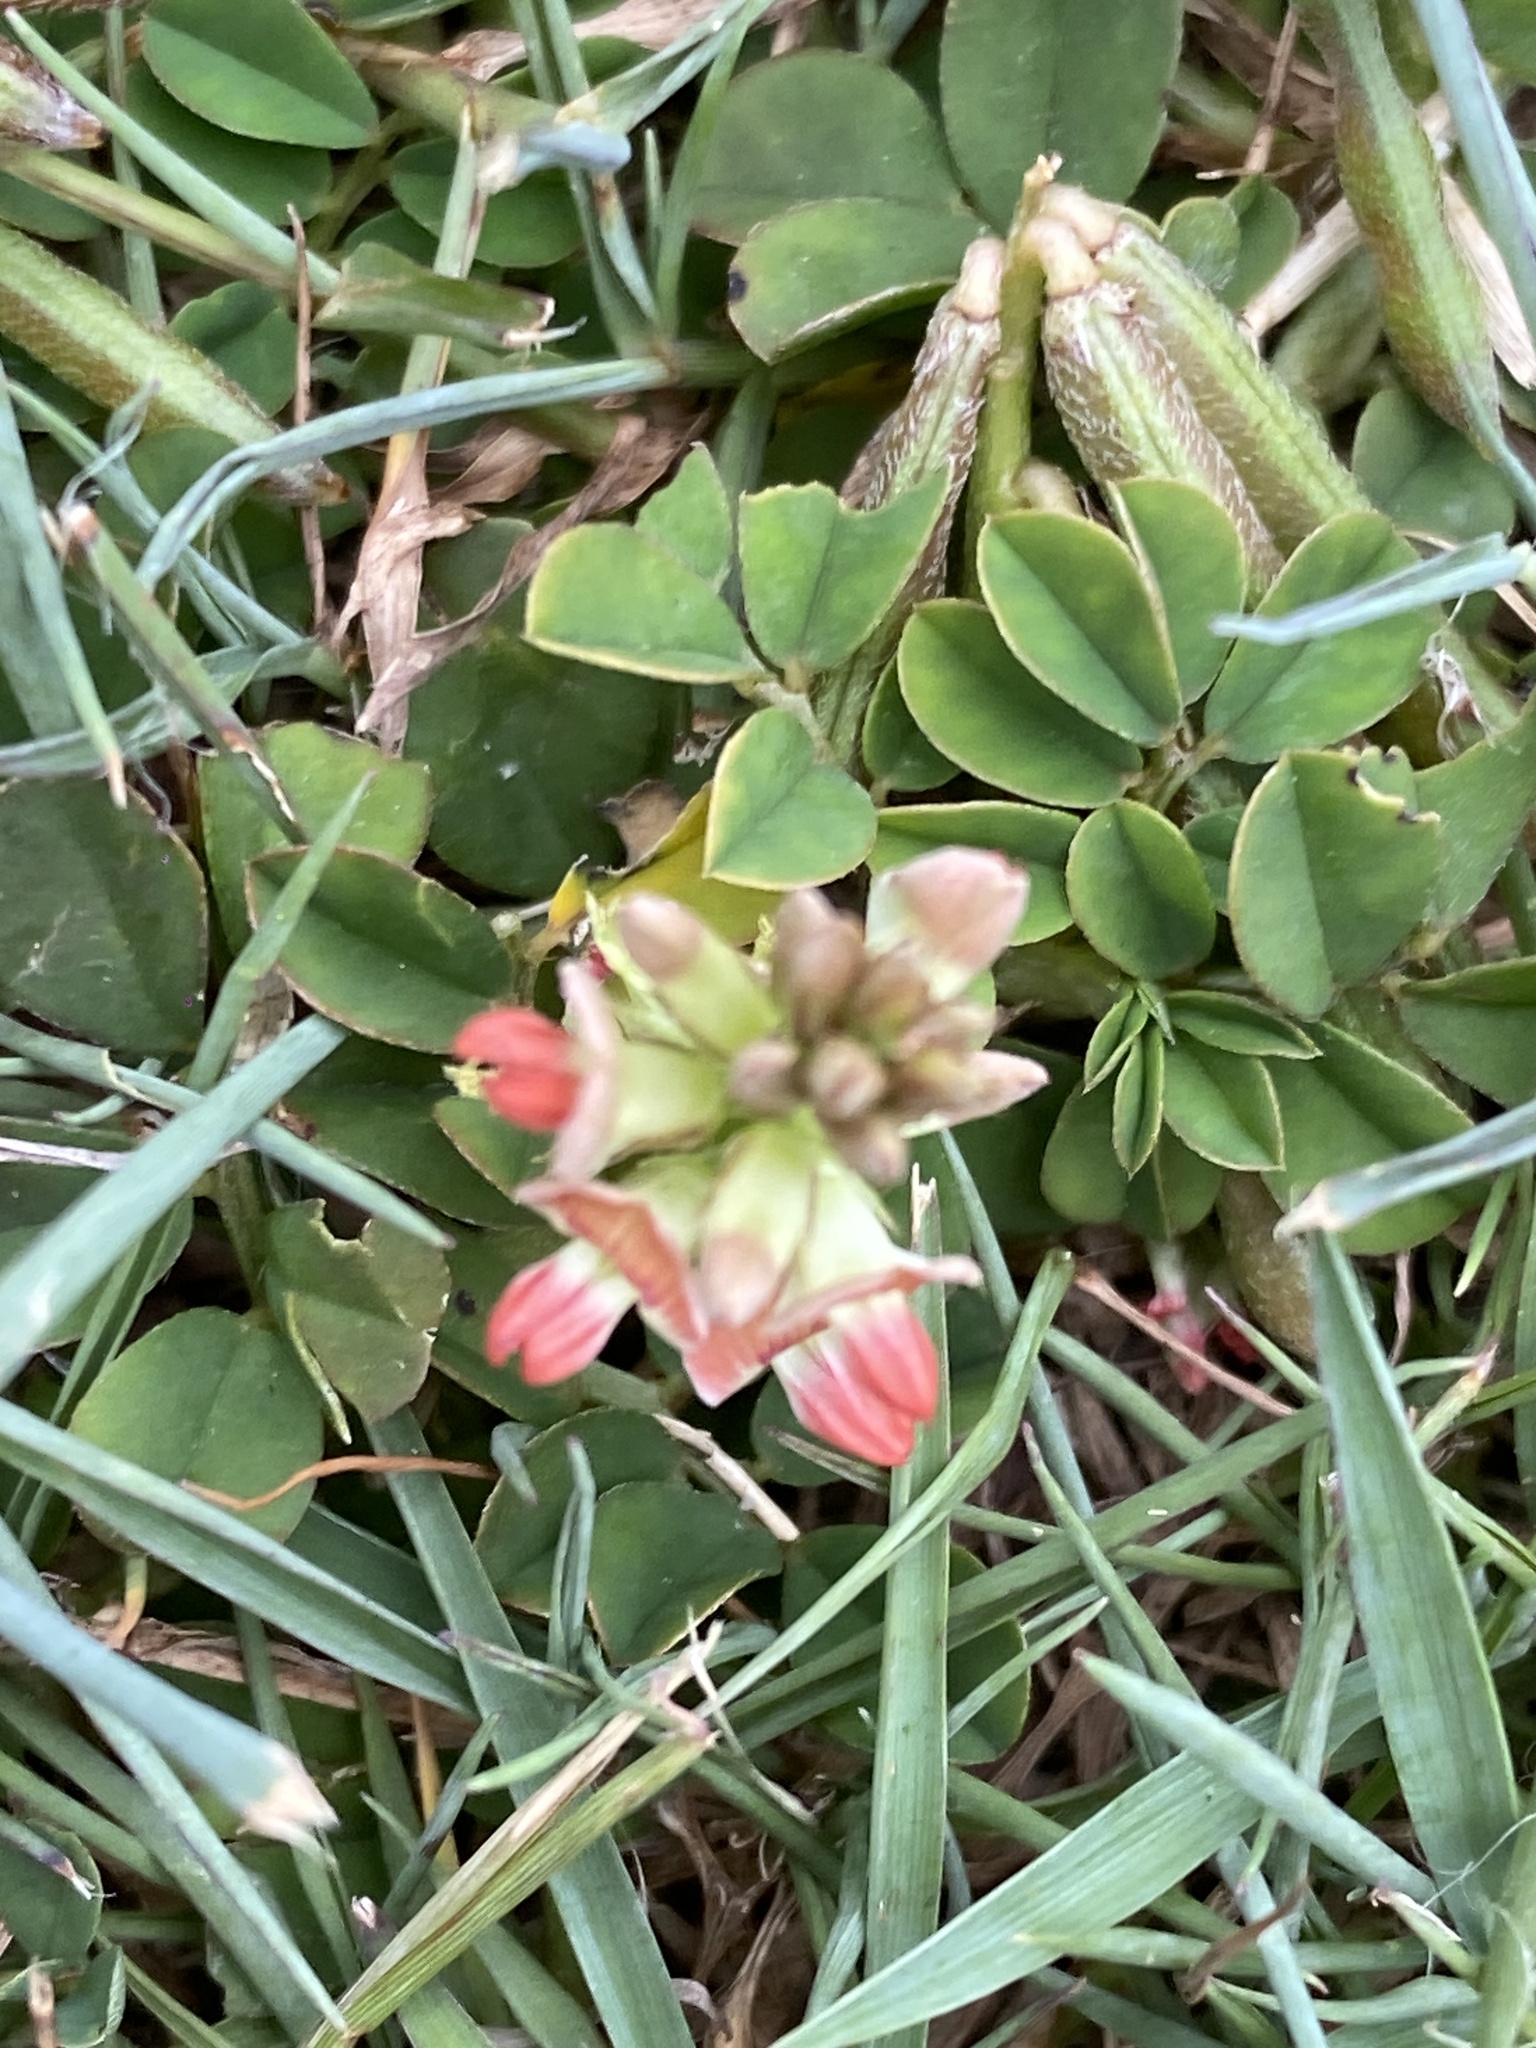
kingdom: Plantae
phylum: Tracheophyta
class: Magnoliopsida
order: Fabales
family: Fabaceae
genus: Indigofera
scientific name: Indigofera spicata
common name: Creeping indigo
